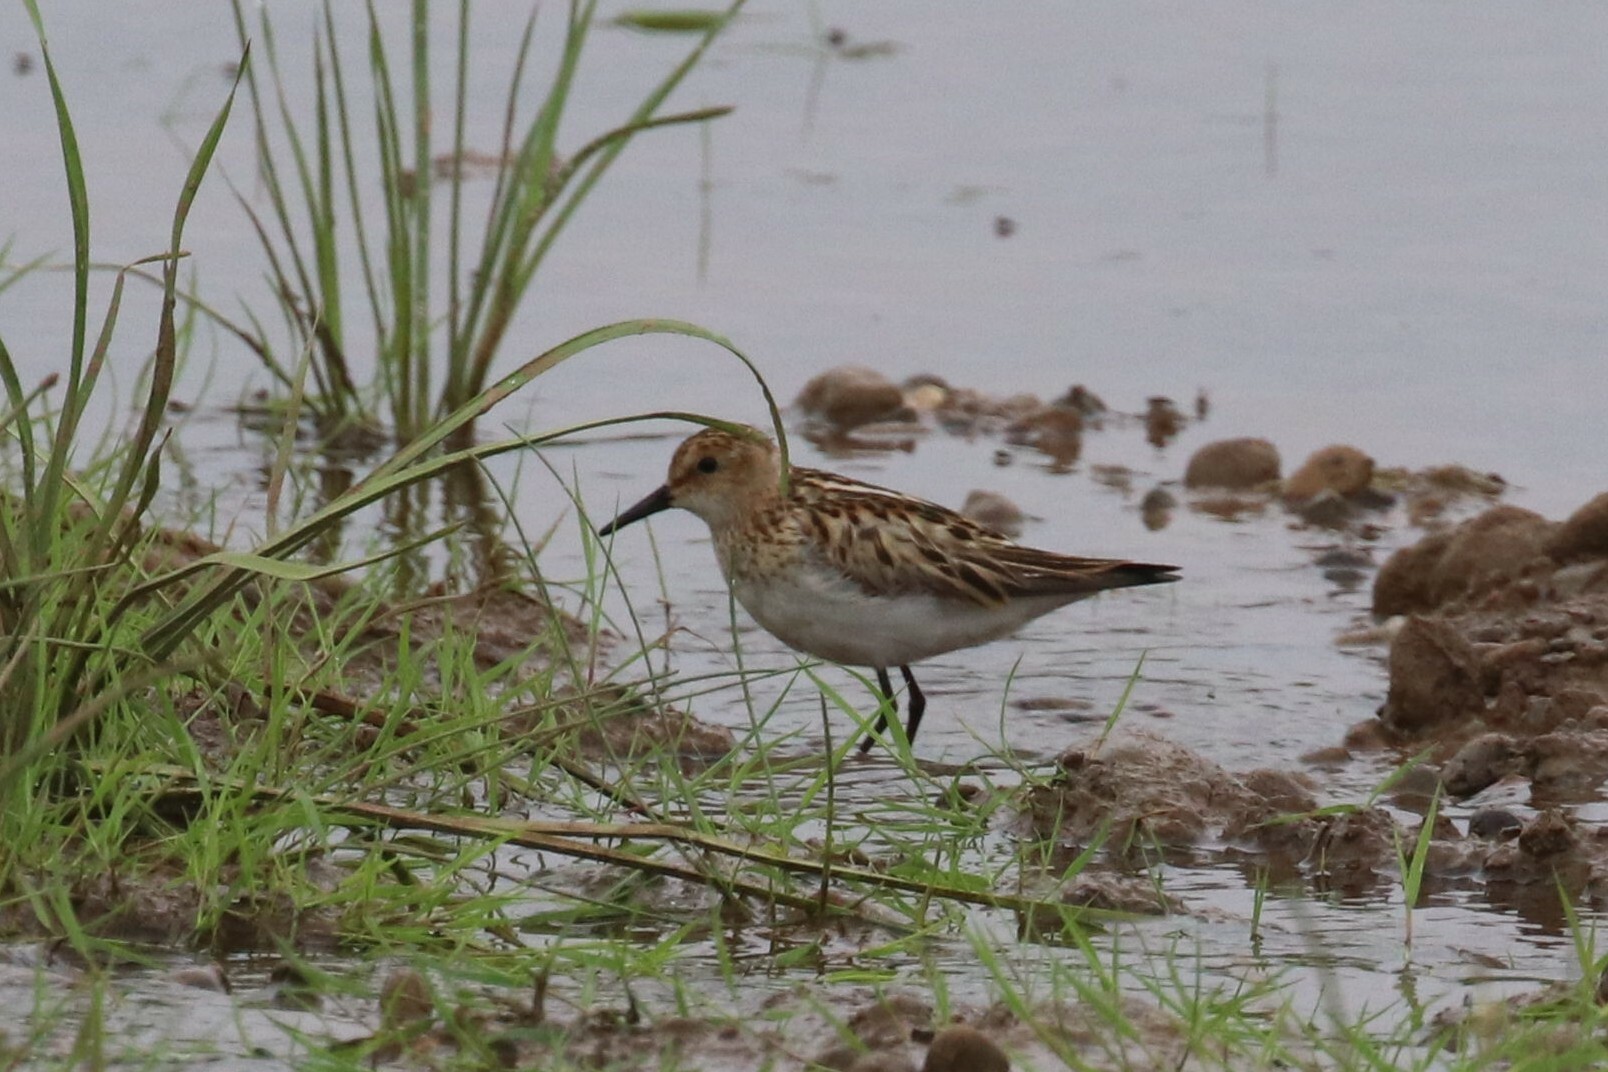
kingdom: Animalia
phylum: Chordata
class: Aves
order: Charadriiformes
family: Scolopacidae
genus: Calidris
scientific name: Calidris minuta
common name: Little stint
